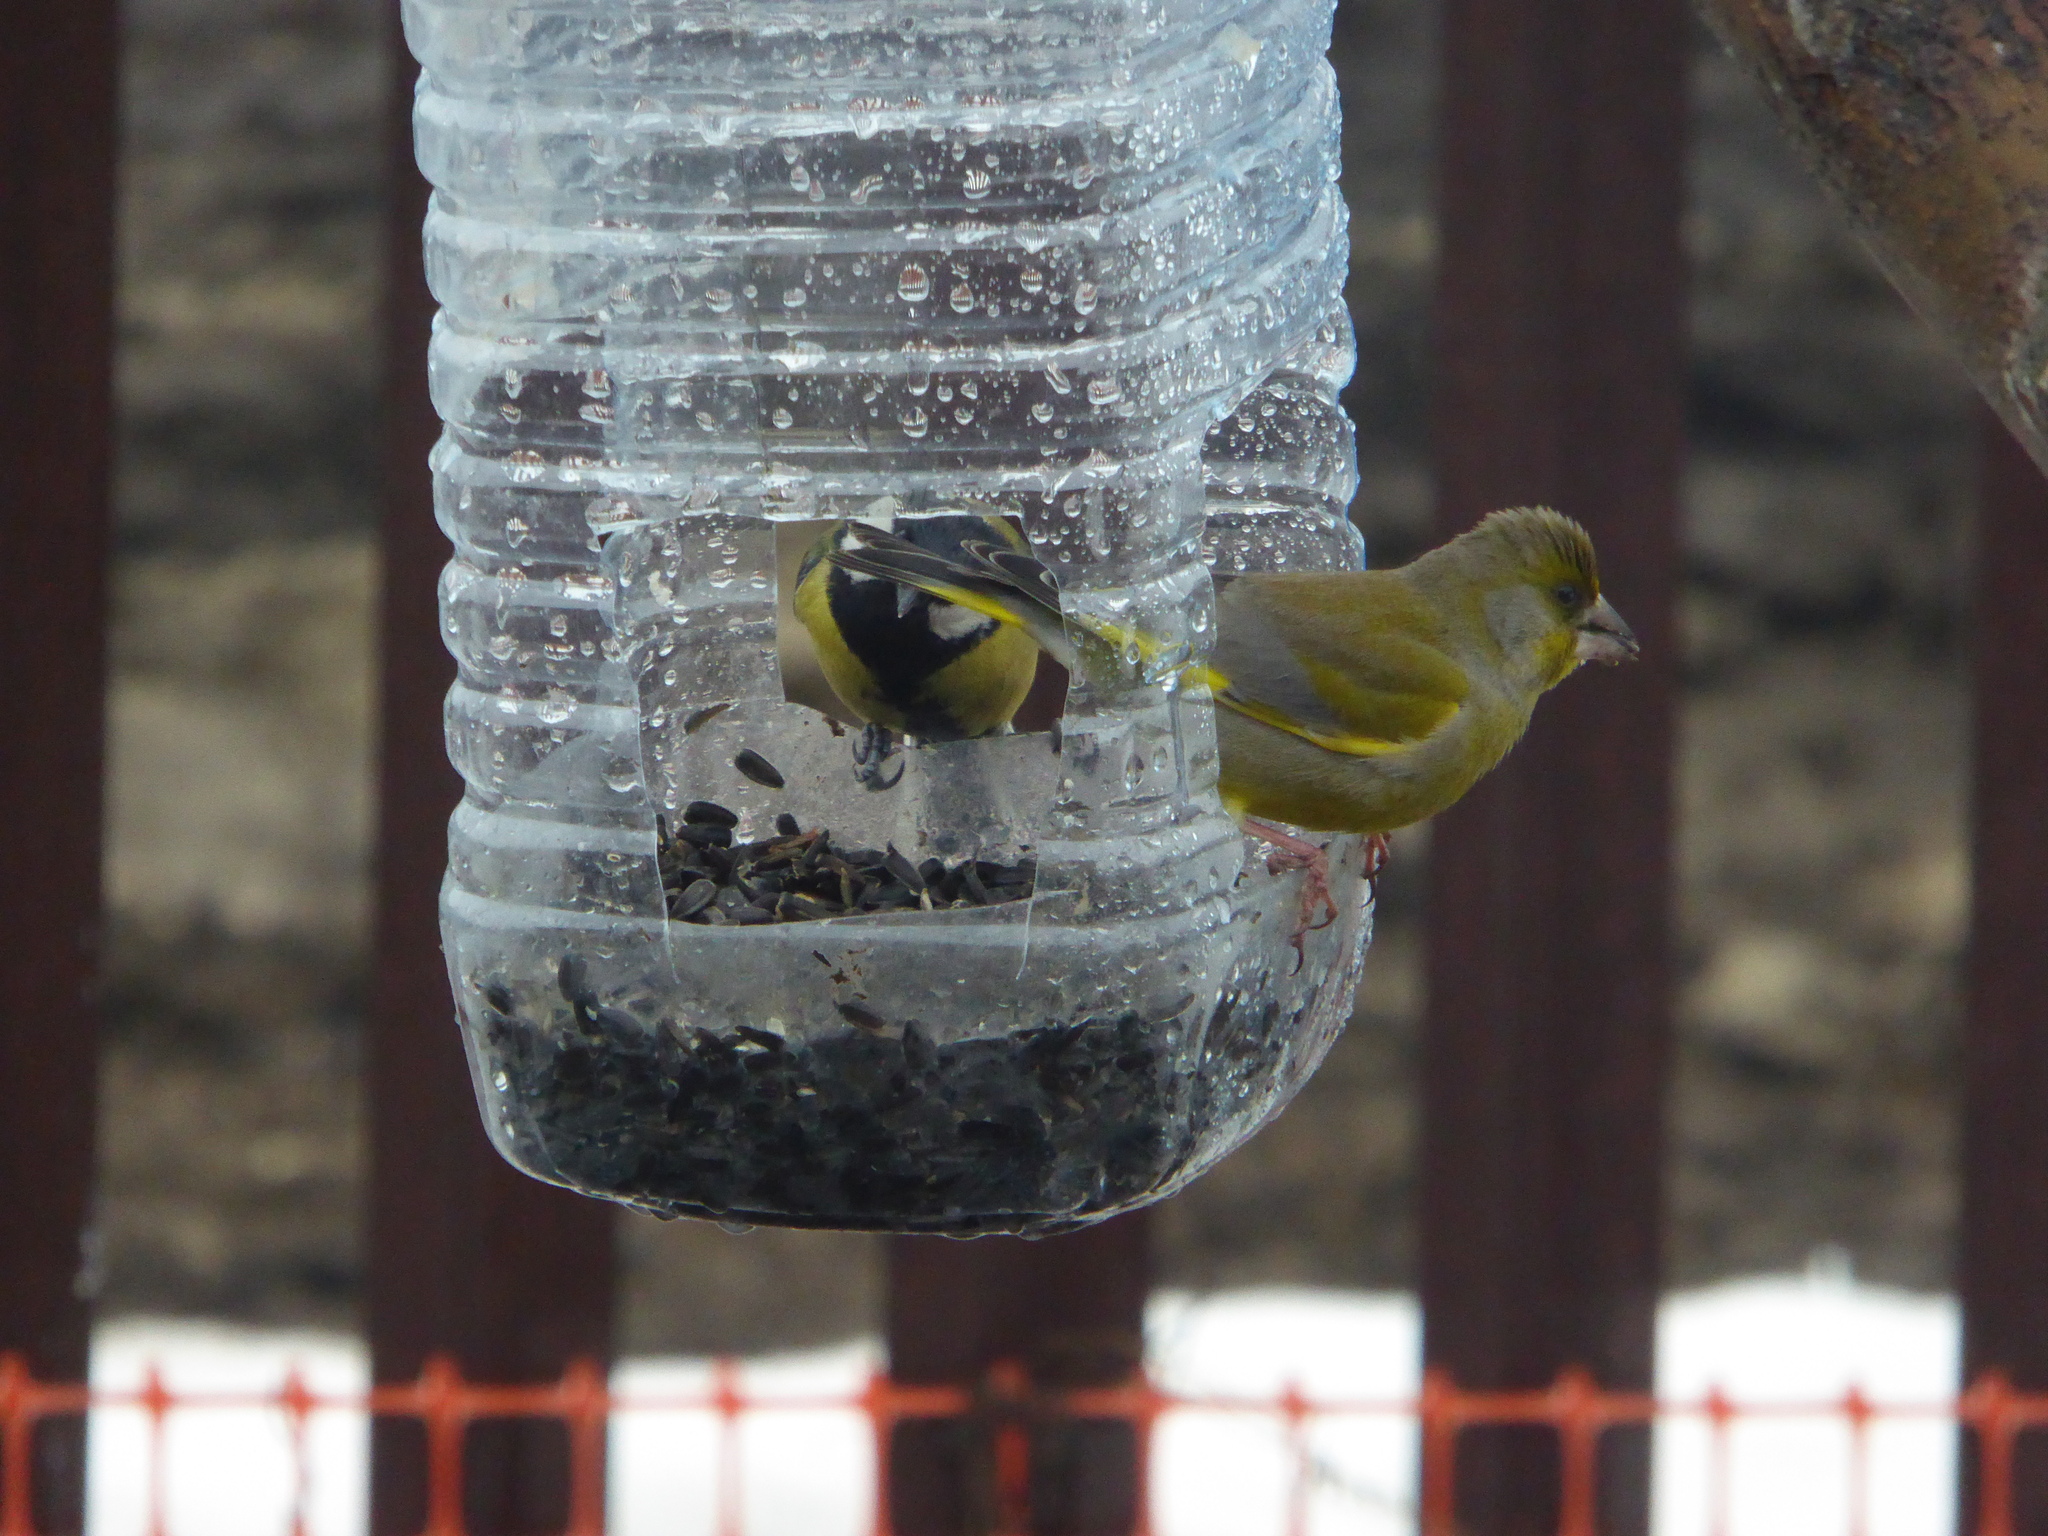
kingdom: Plantae
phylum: Tracheophyta
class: Liliopsida
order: Poales
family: Poaceae
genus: Chloris
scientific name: Chloris chloris
